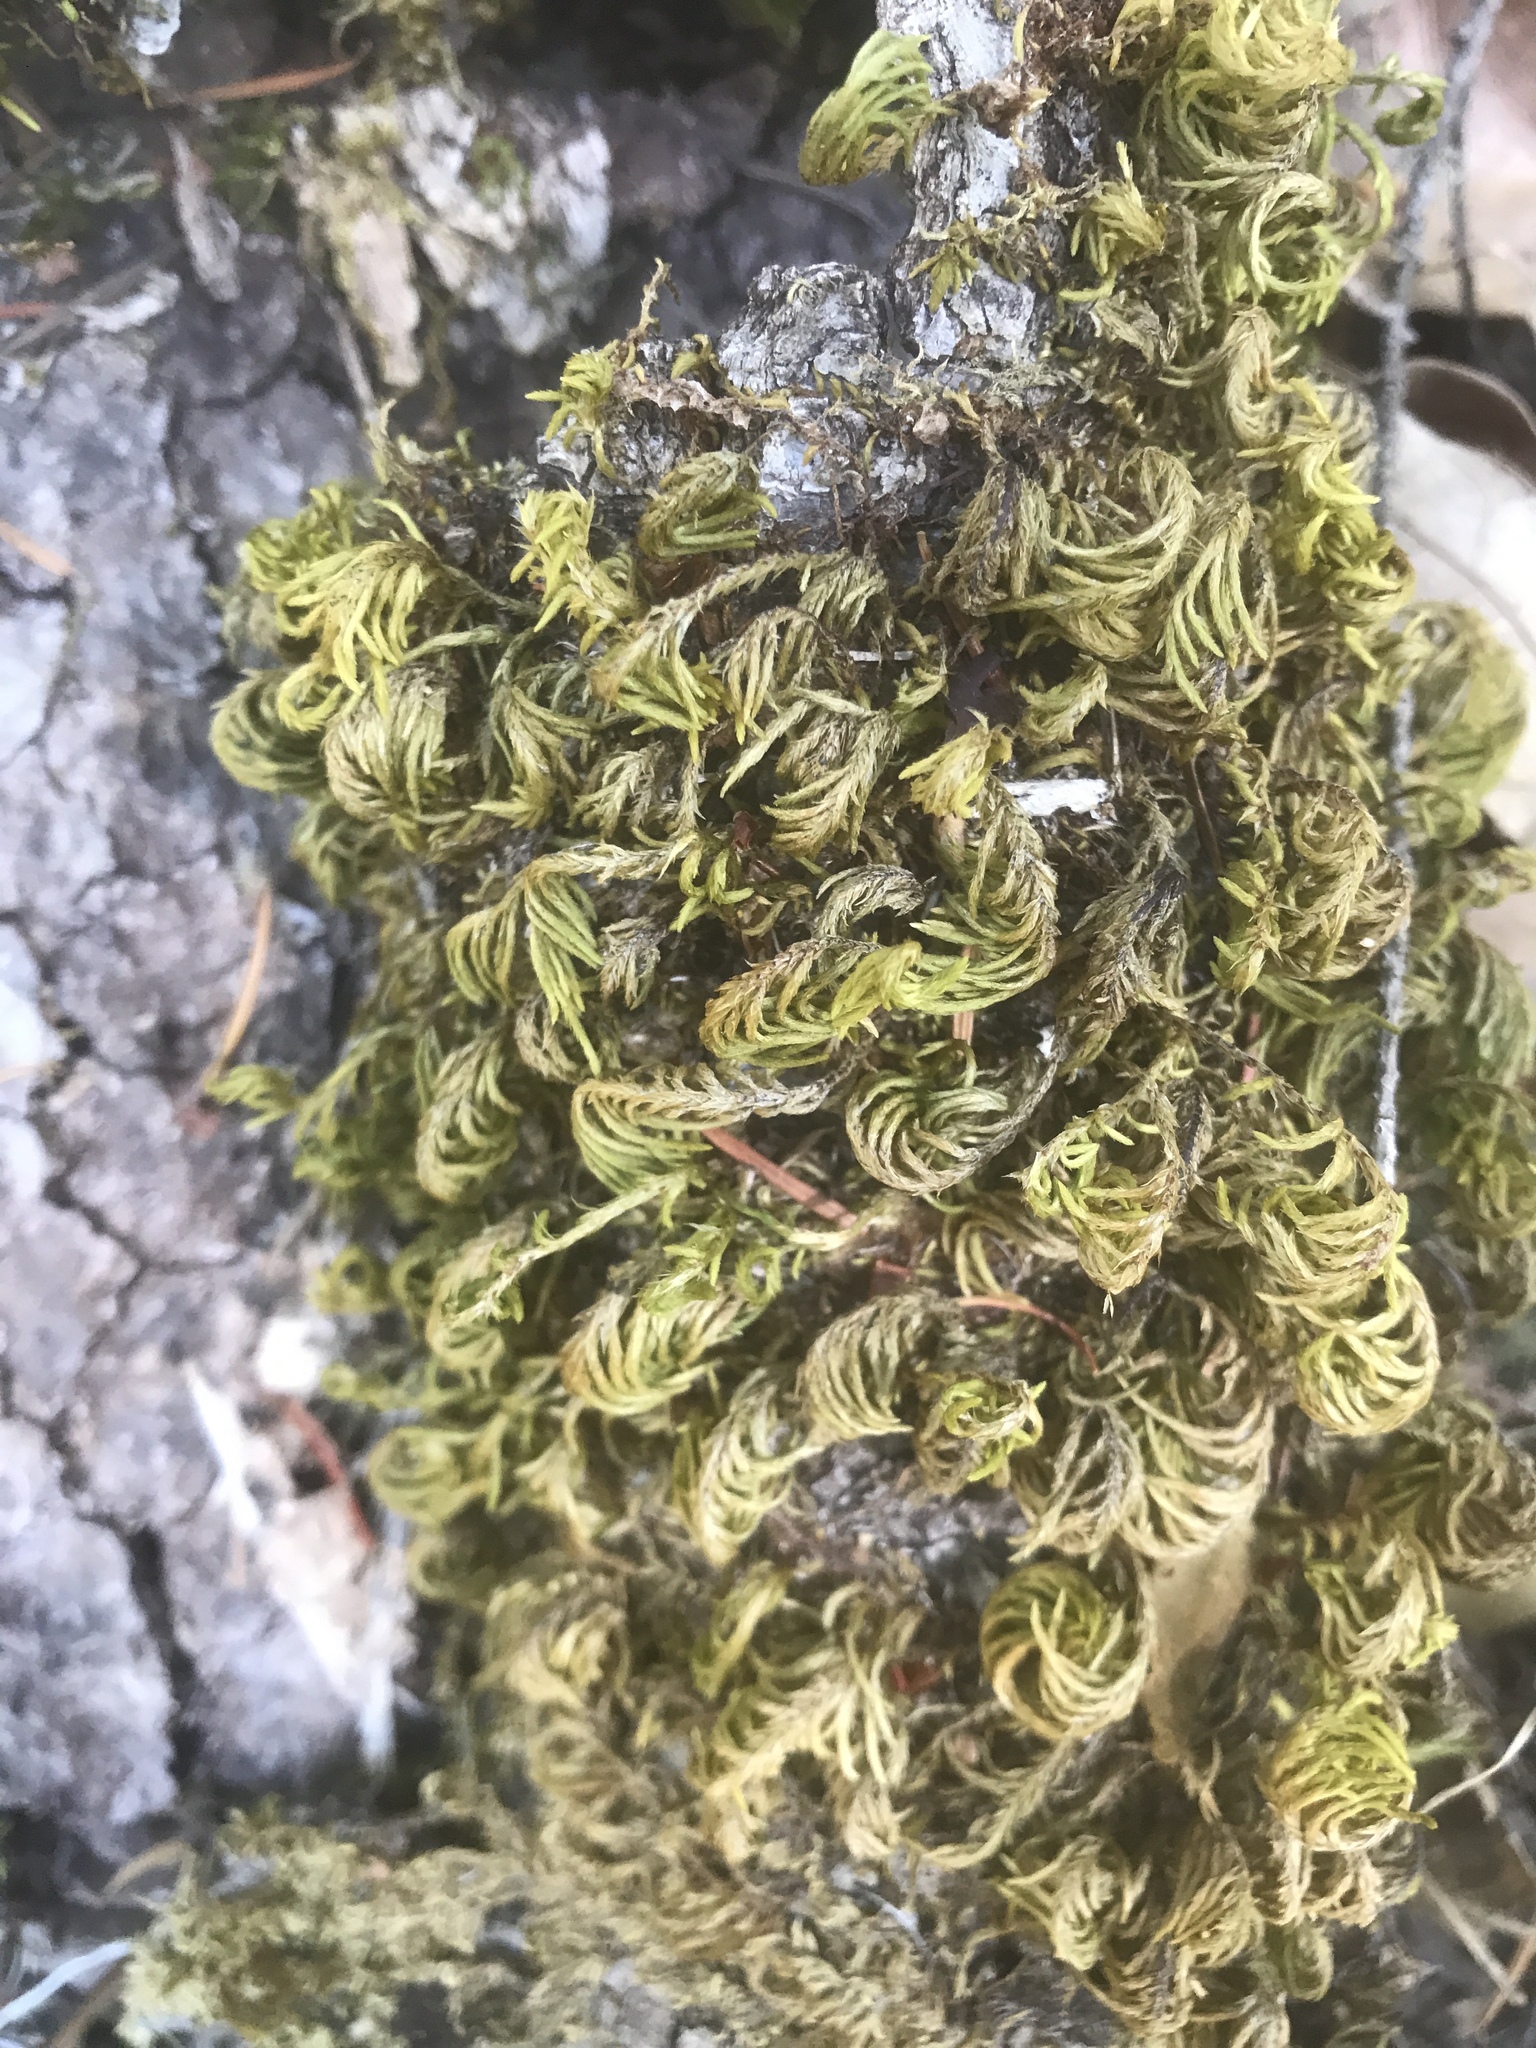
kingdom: Plantae
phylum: Bryophyta
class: Bryopsida
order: Hypnales
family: Cryphaeaceae
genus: Dendroalsia
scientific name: Dendroalsia abietina
